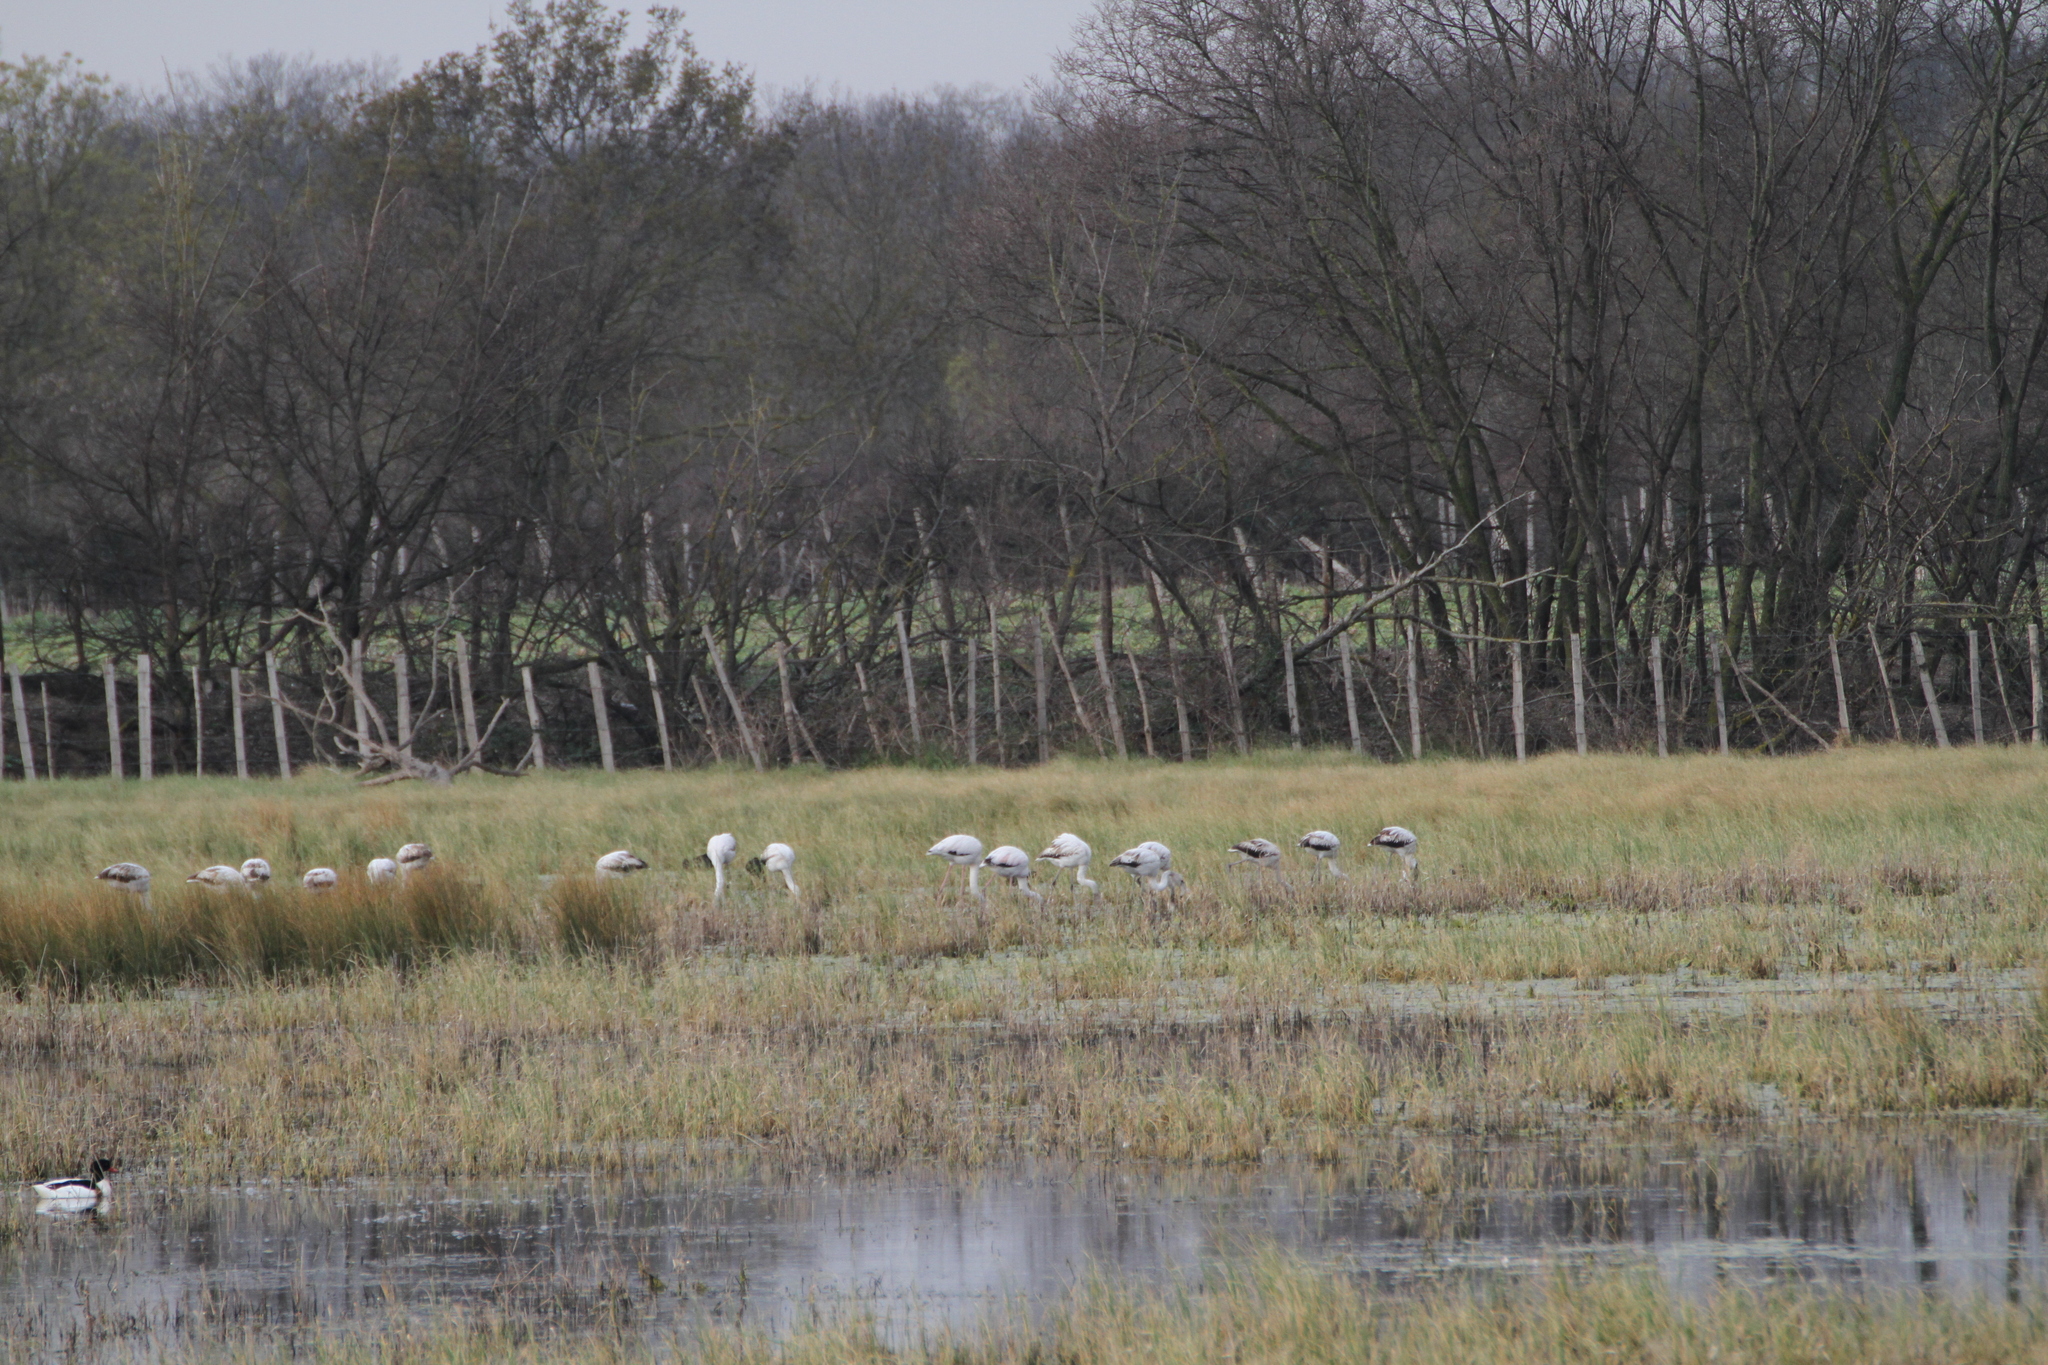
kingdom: Animalia
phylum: Chordata
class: Aves
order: Phoenicopteriformes
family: Phoenicopteridae
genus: Phoenicopterus
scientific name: Phoenicopterus roseus
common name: Greater flamingo
